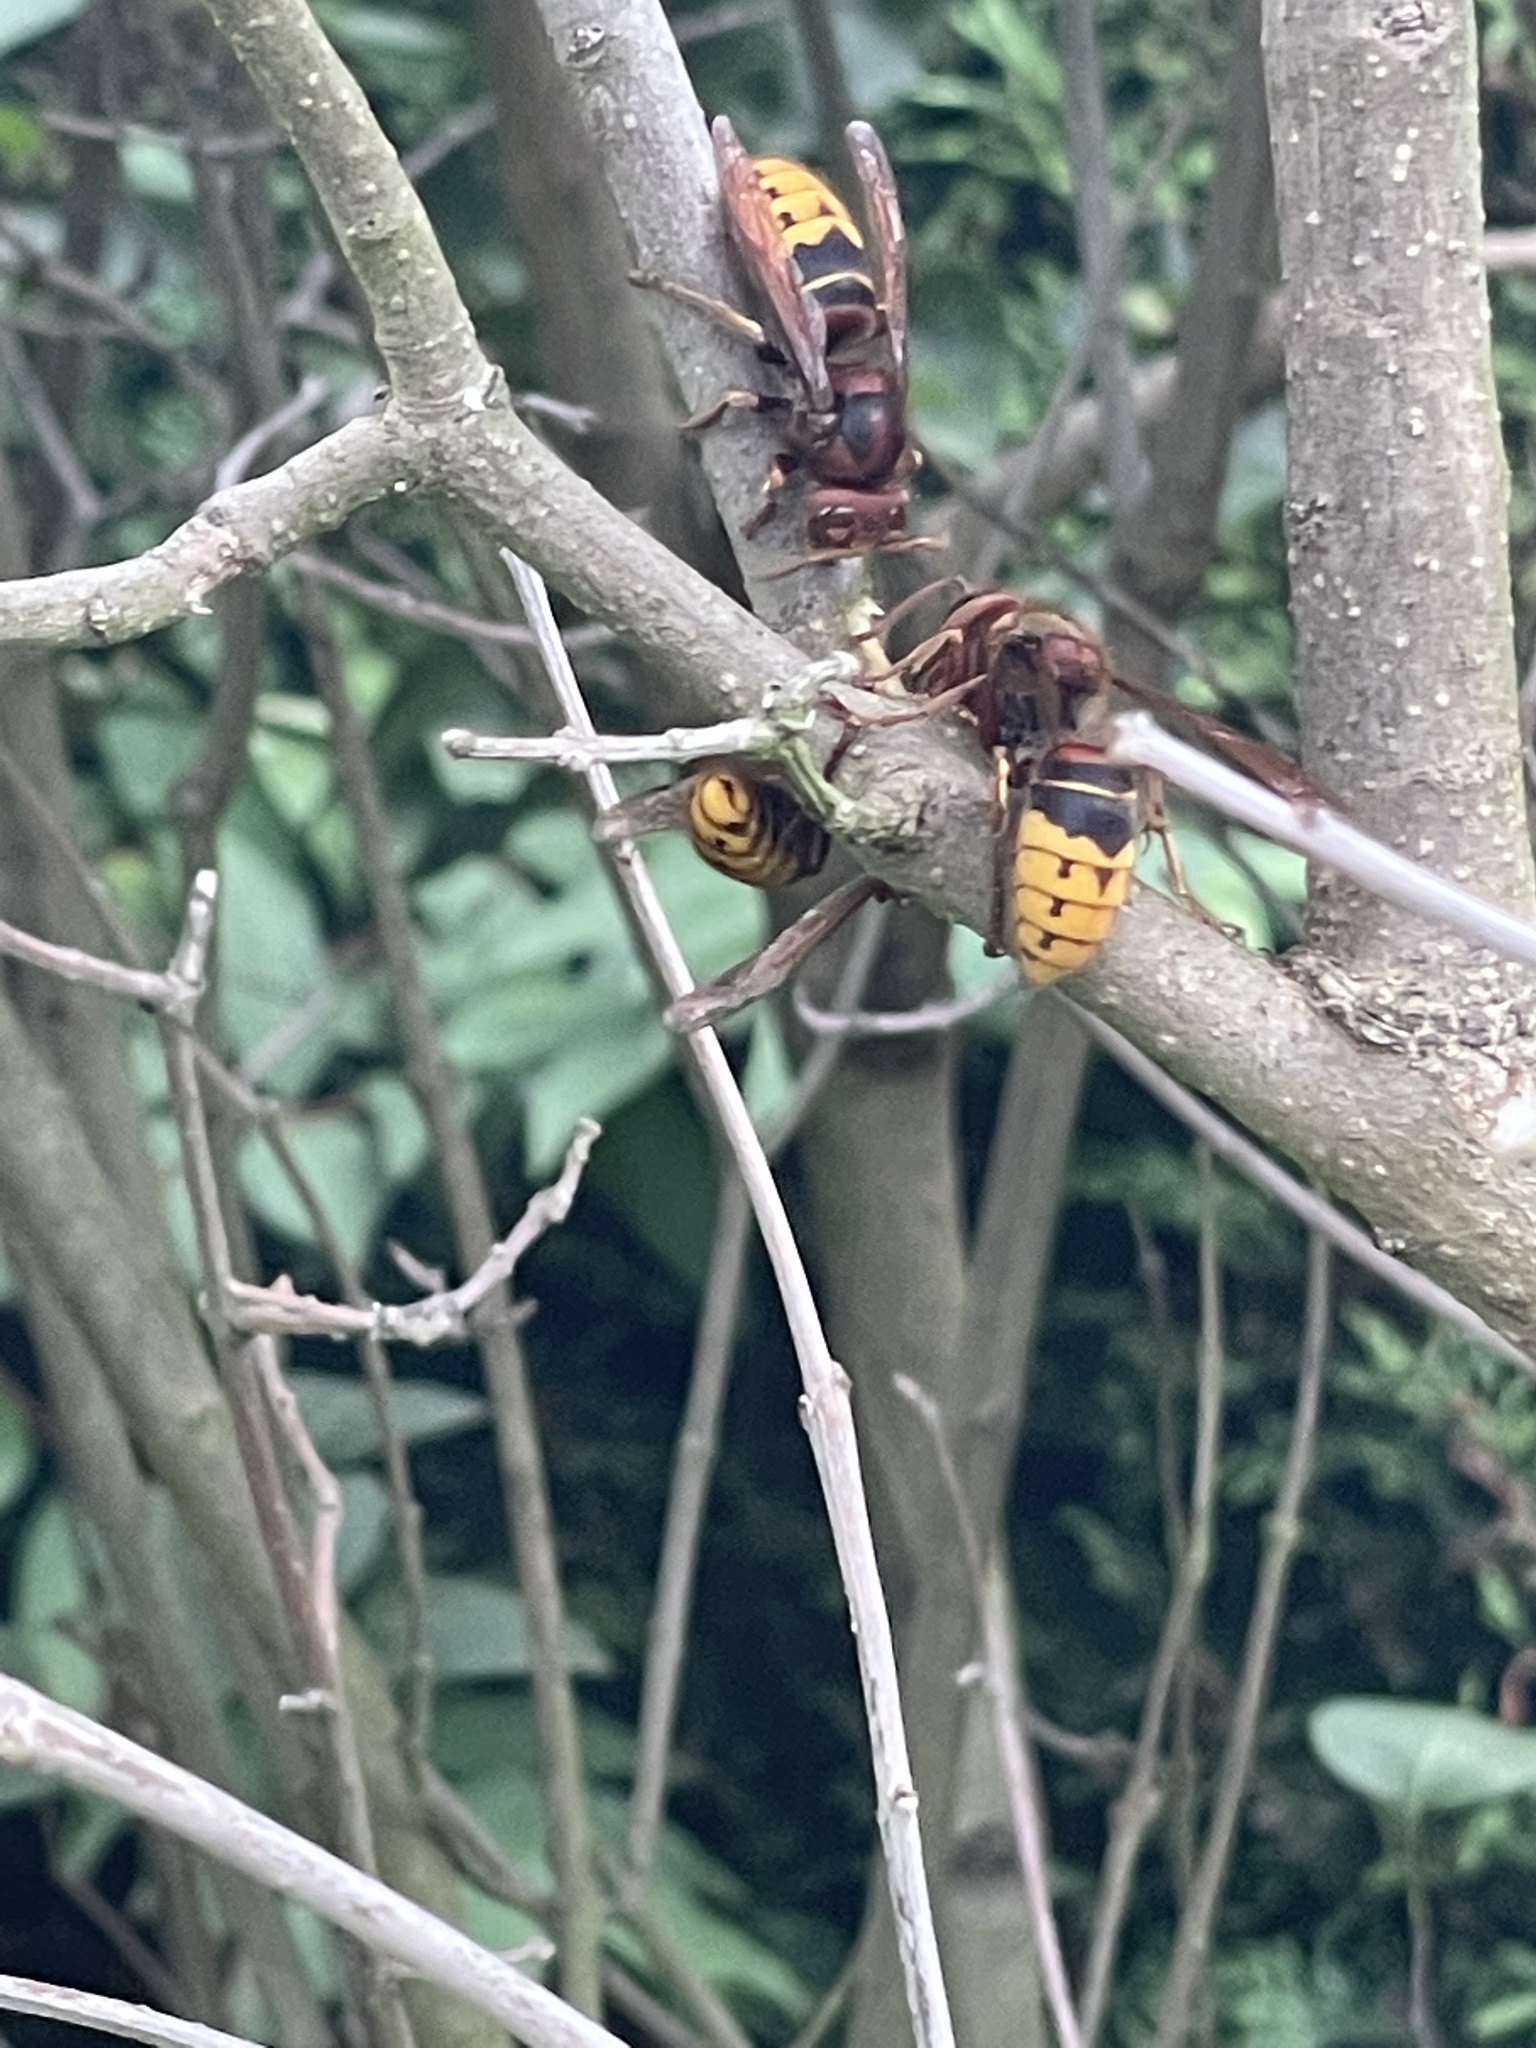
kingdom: Animalia
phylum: Arthropoda
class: Insecta
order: Hymenoptera
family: Vespidae
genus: Vespa
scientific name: Vespa crabro
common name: Hornet
